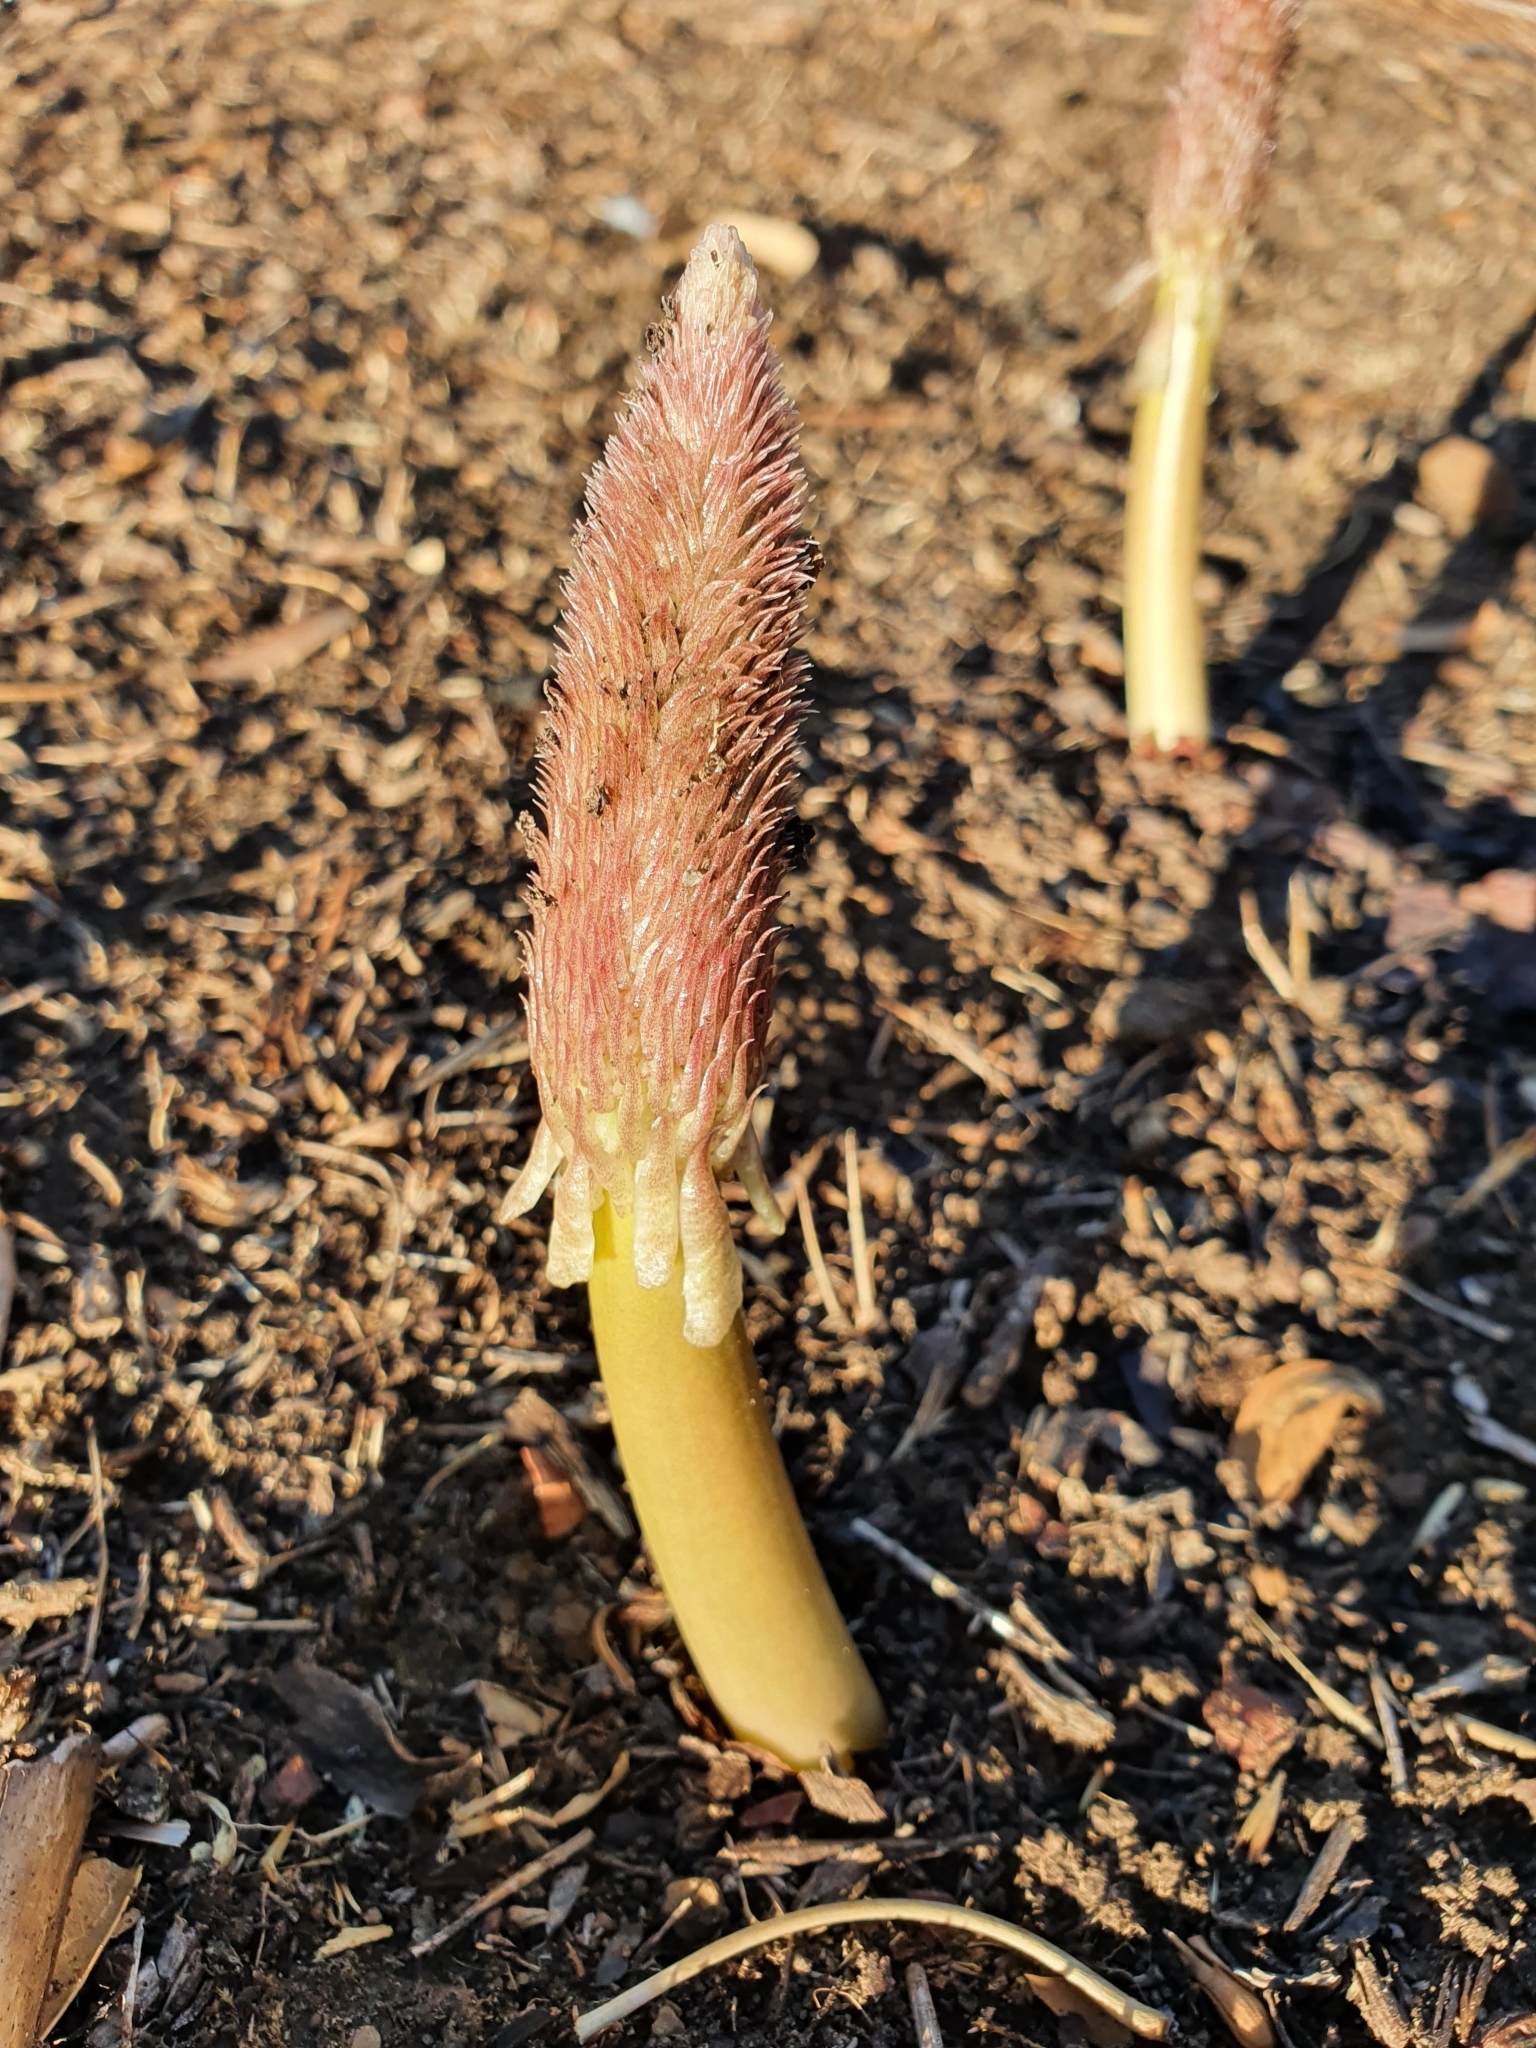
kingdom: Plantae
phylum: Tracheophyta
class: Liliopsida
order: Asparagales
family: Asparagaceae
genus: Drimia
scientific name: Drimia numidica
